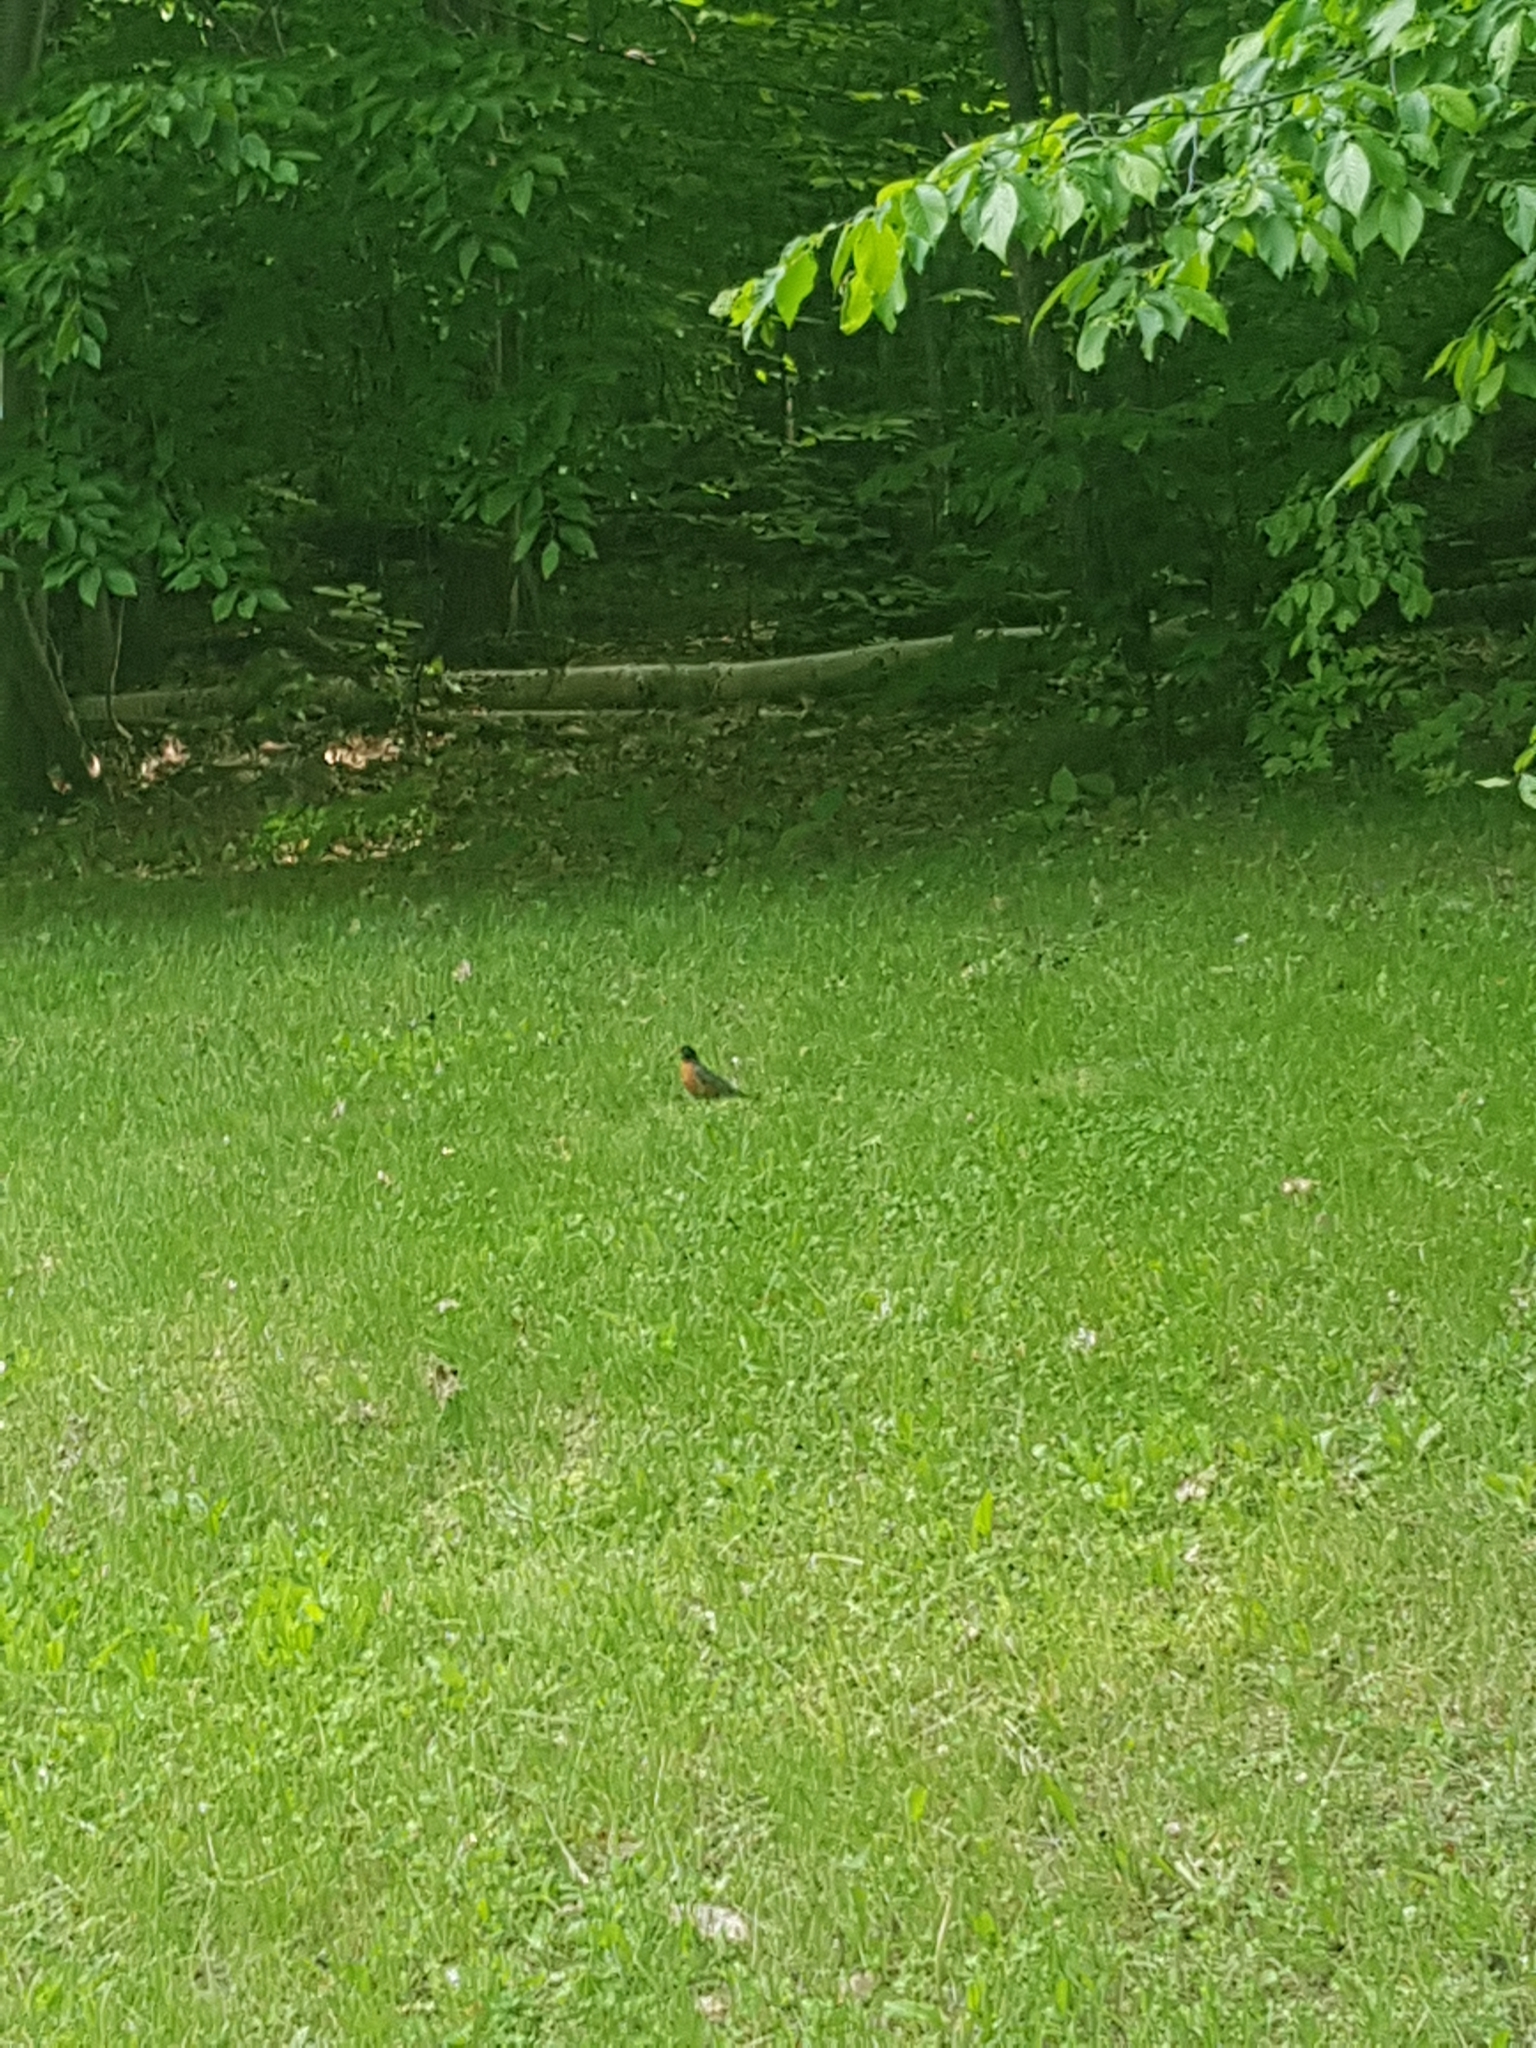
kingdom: Animalia
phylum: Chordata
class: Aves
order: Passeriformes
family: Turdidae
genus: Turdus
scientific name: Turdus migratorius
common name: American robin
